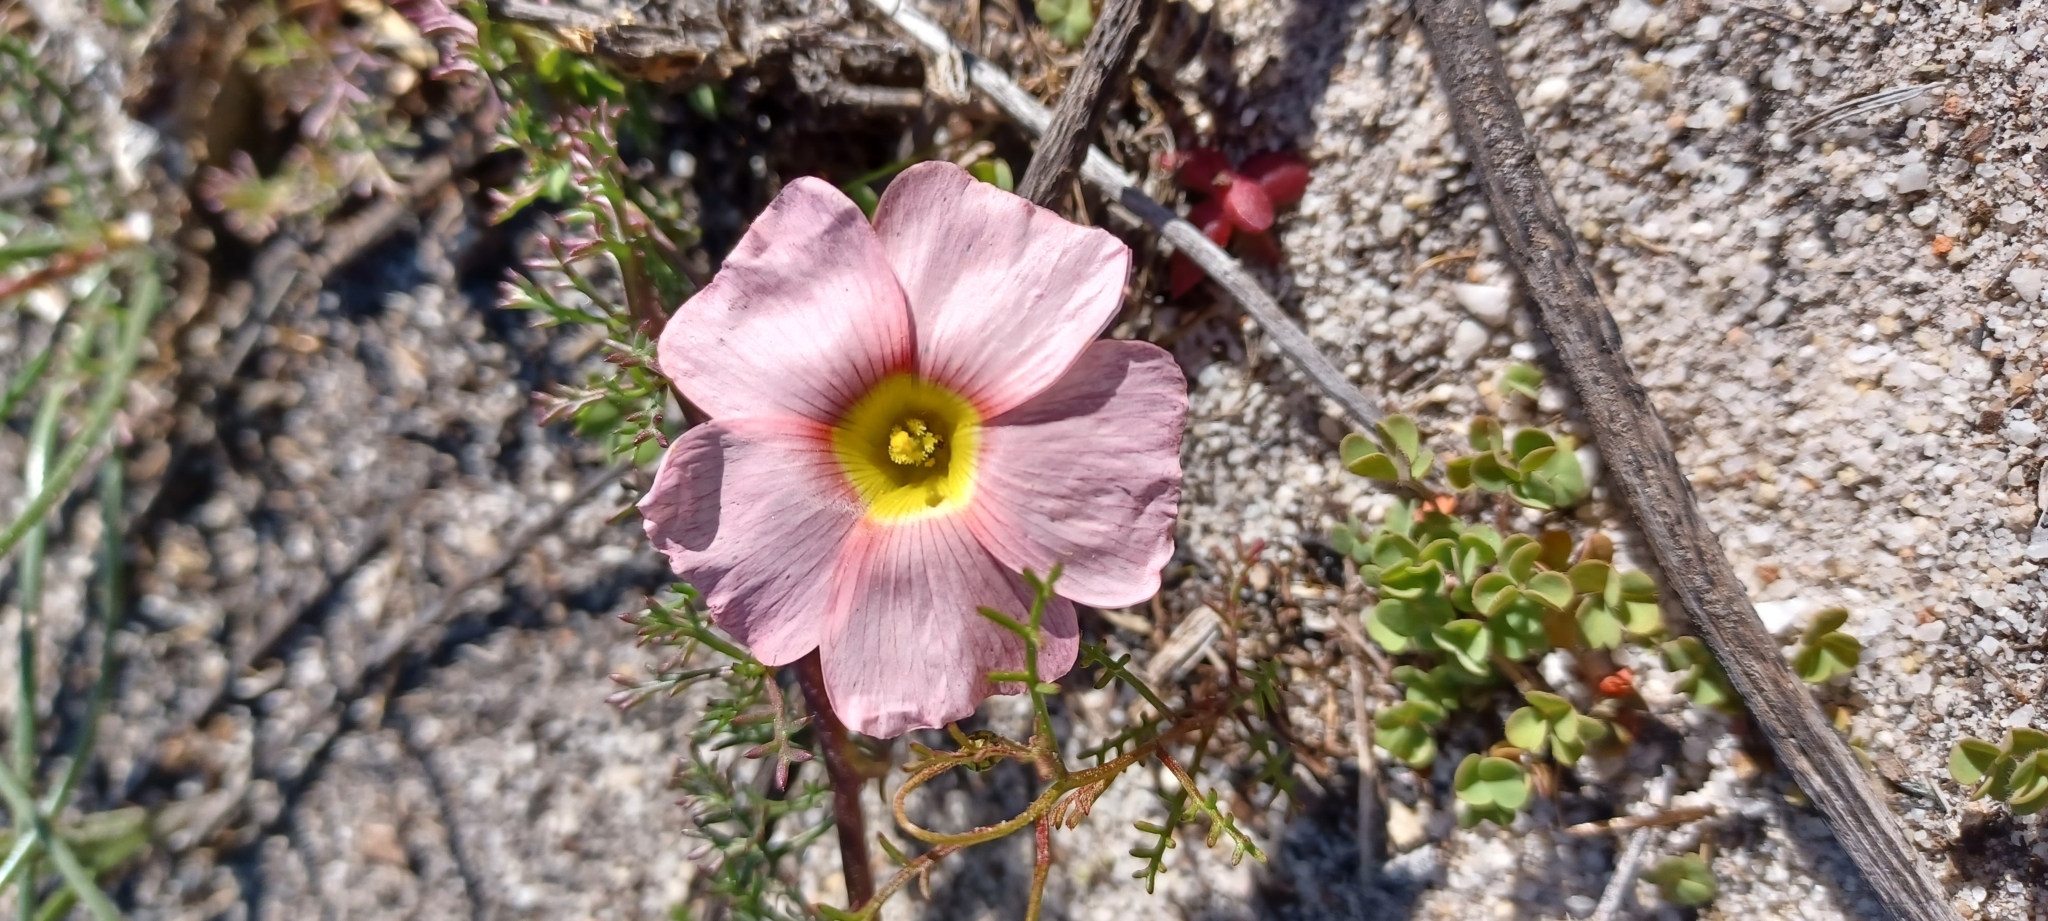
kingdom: Plantae
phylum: Tracheophyta
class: Magnoliopsida
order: Oxalidales
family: Oxalidaceae
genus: Oxalis
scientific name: Oxalis obtusa
